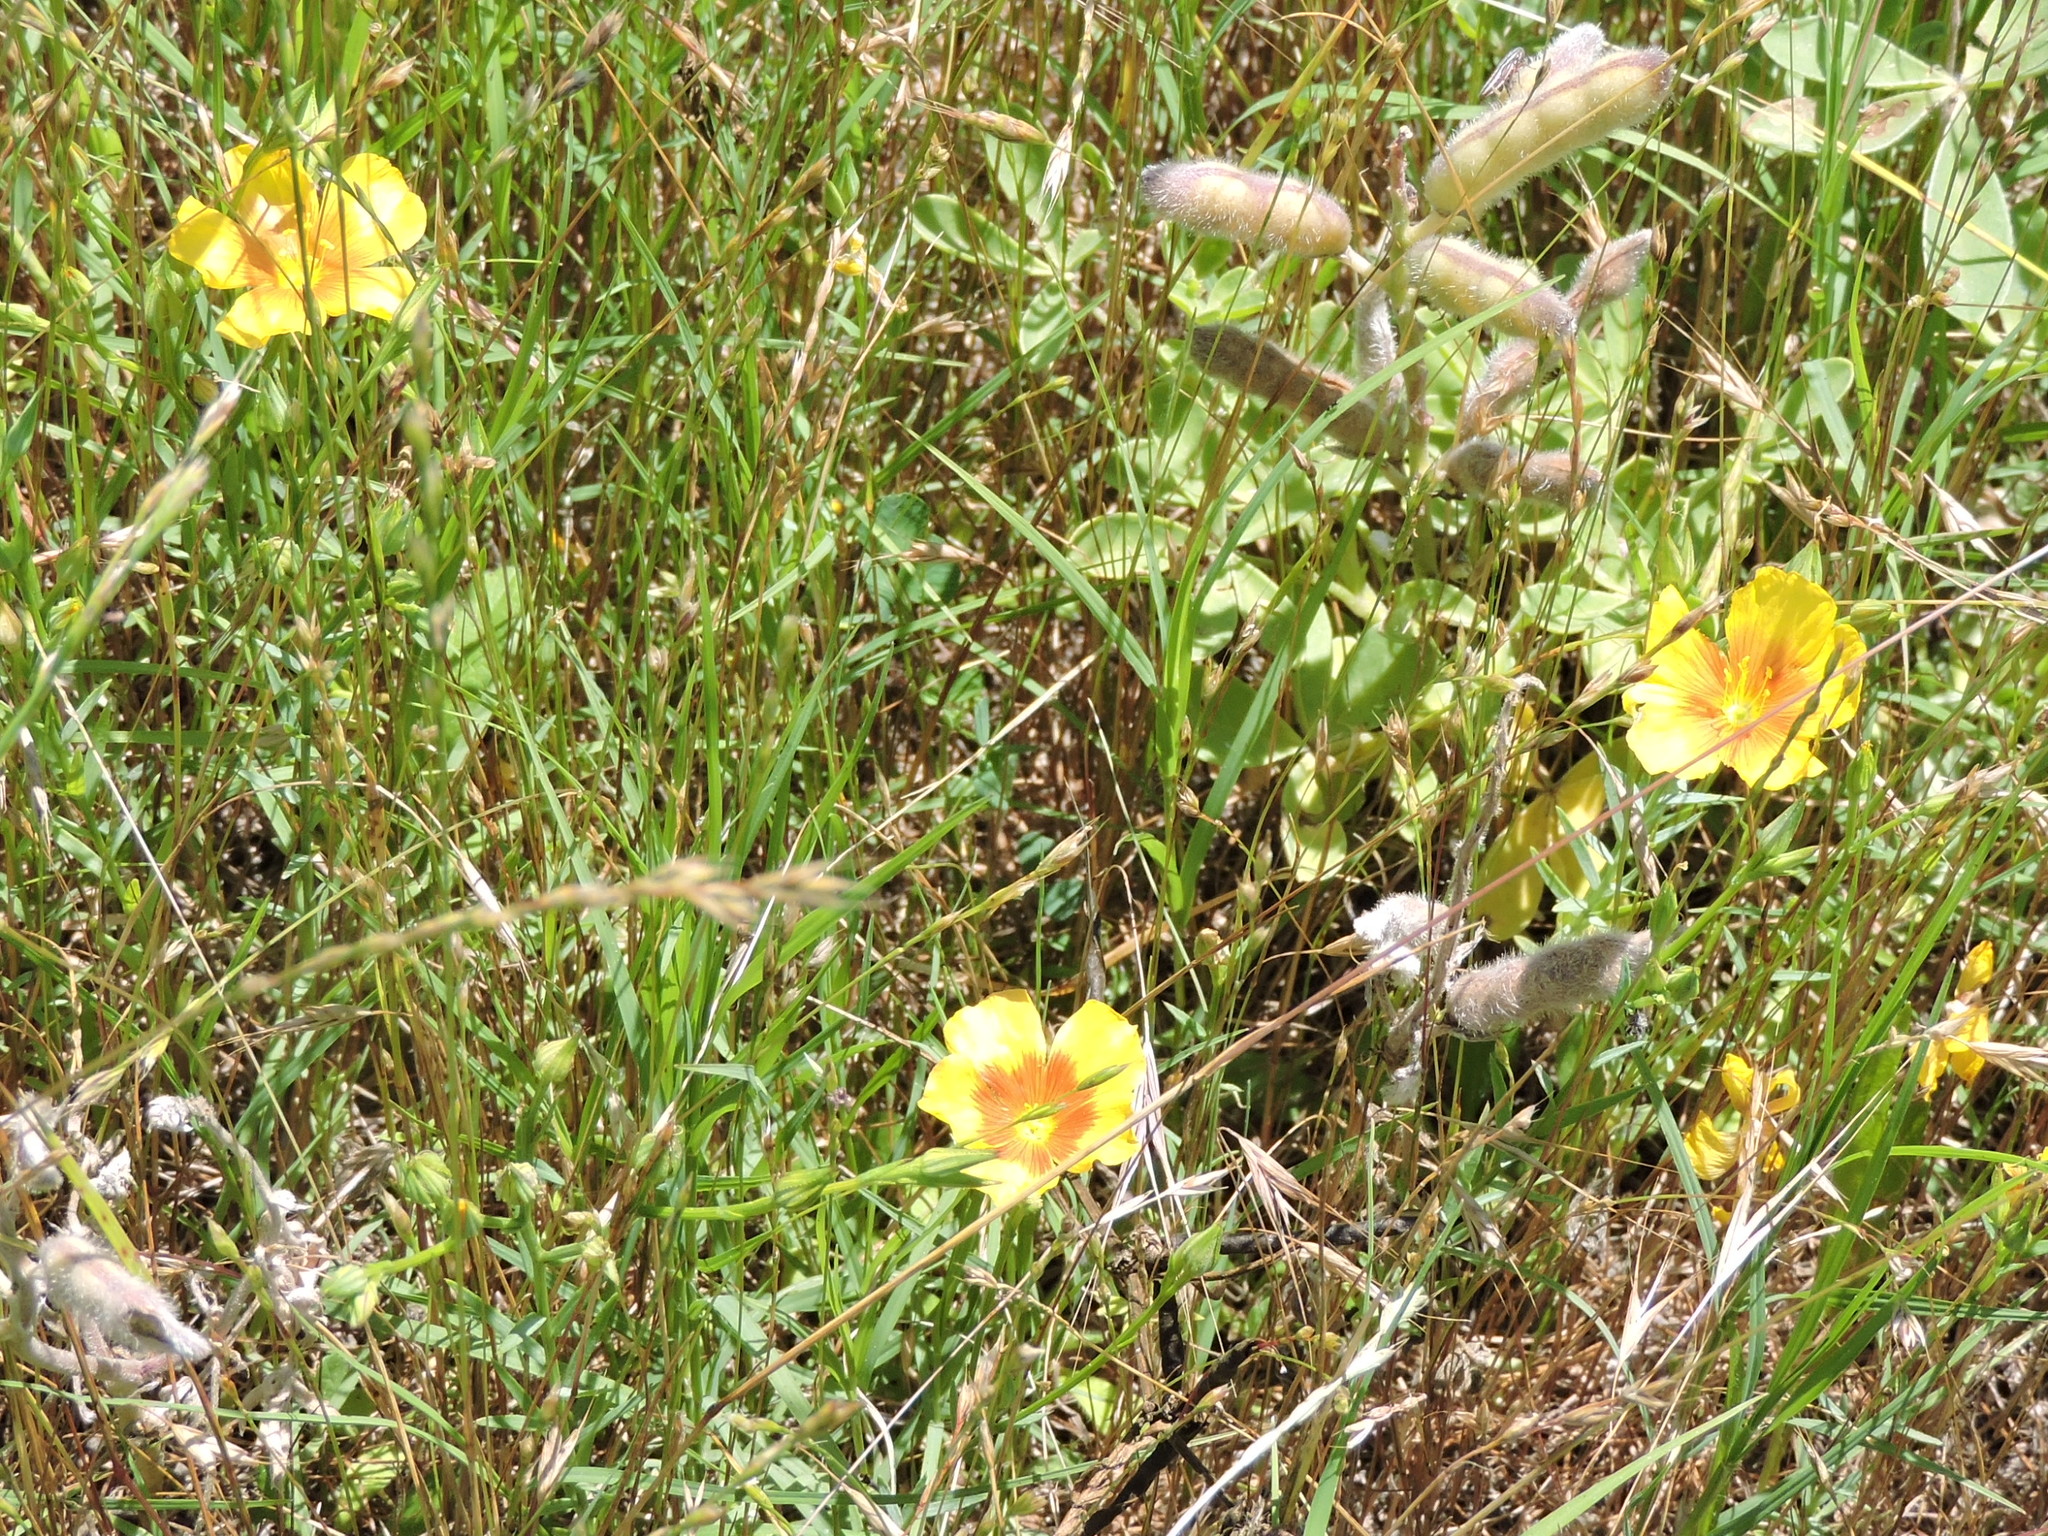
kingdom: Plantae
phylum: Tracheophyta
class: Magnoliopsida
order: Malpighiales
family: Linaceae
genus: Linum
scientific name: Linum rigidum
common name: Stiff-stem flax
